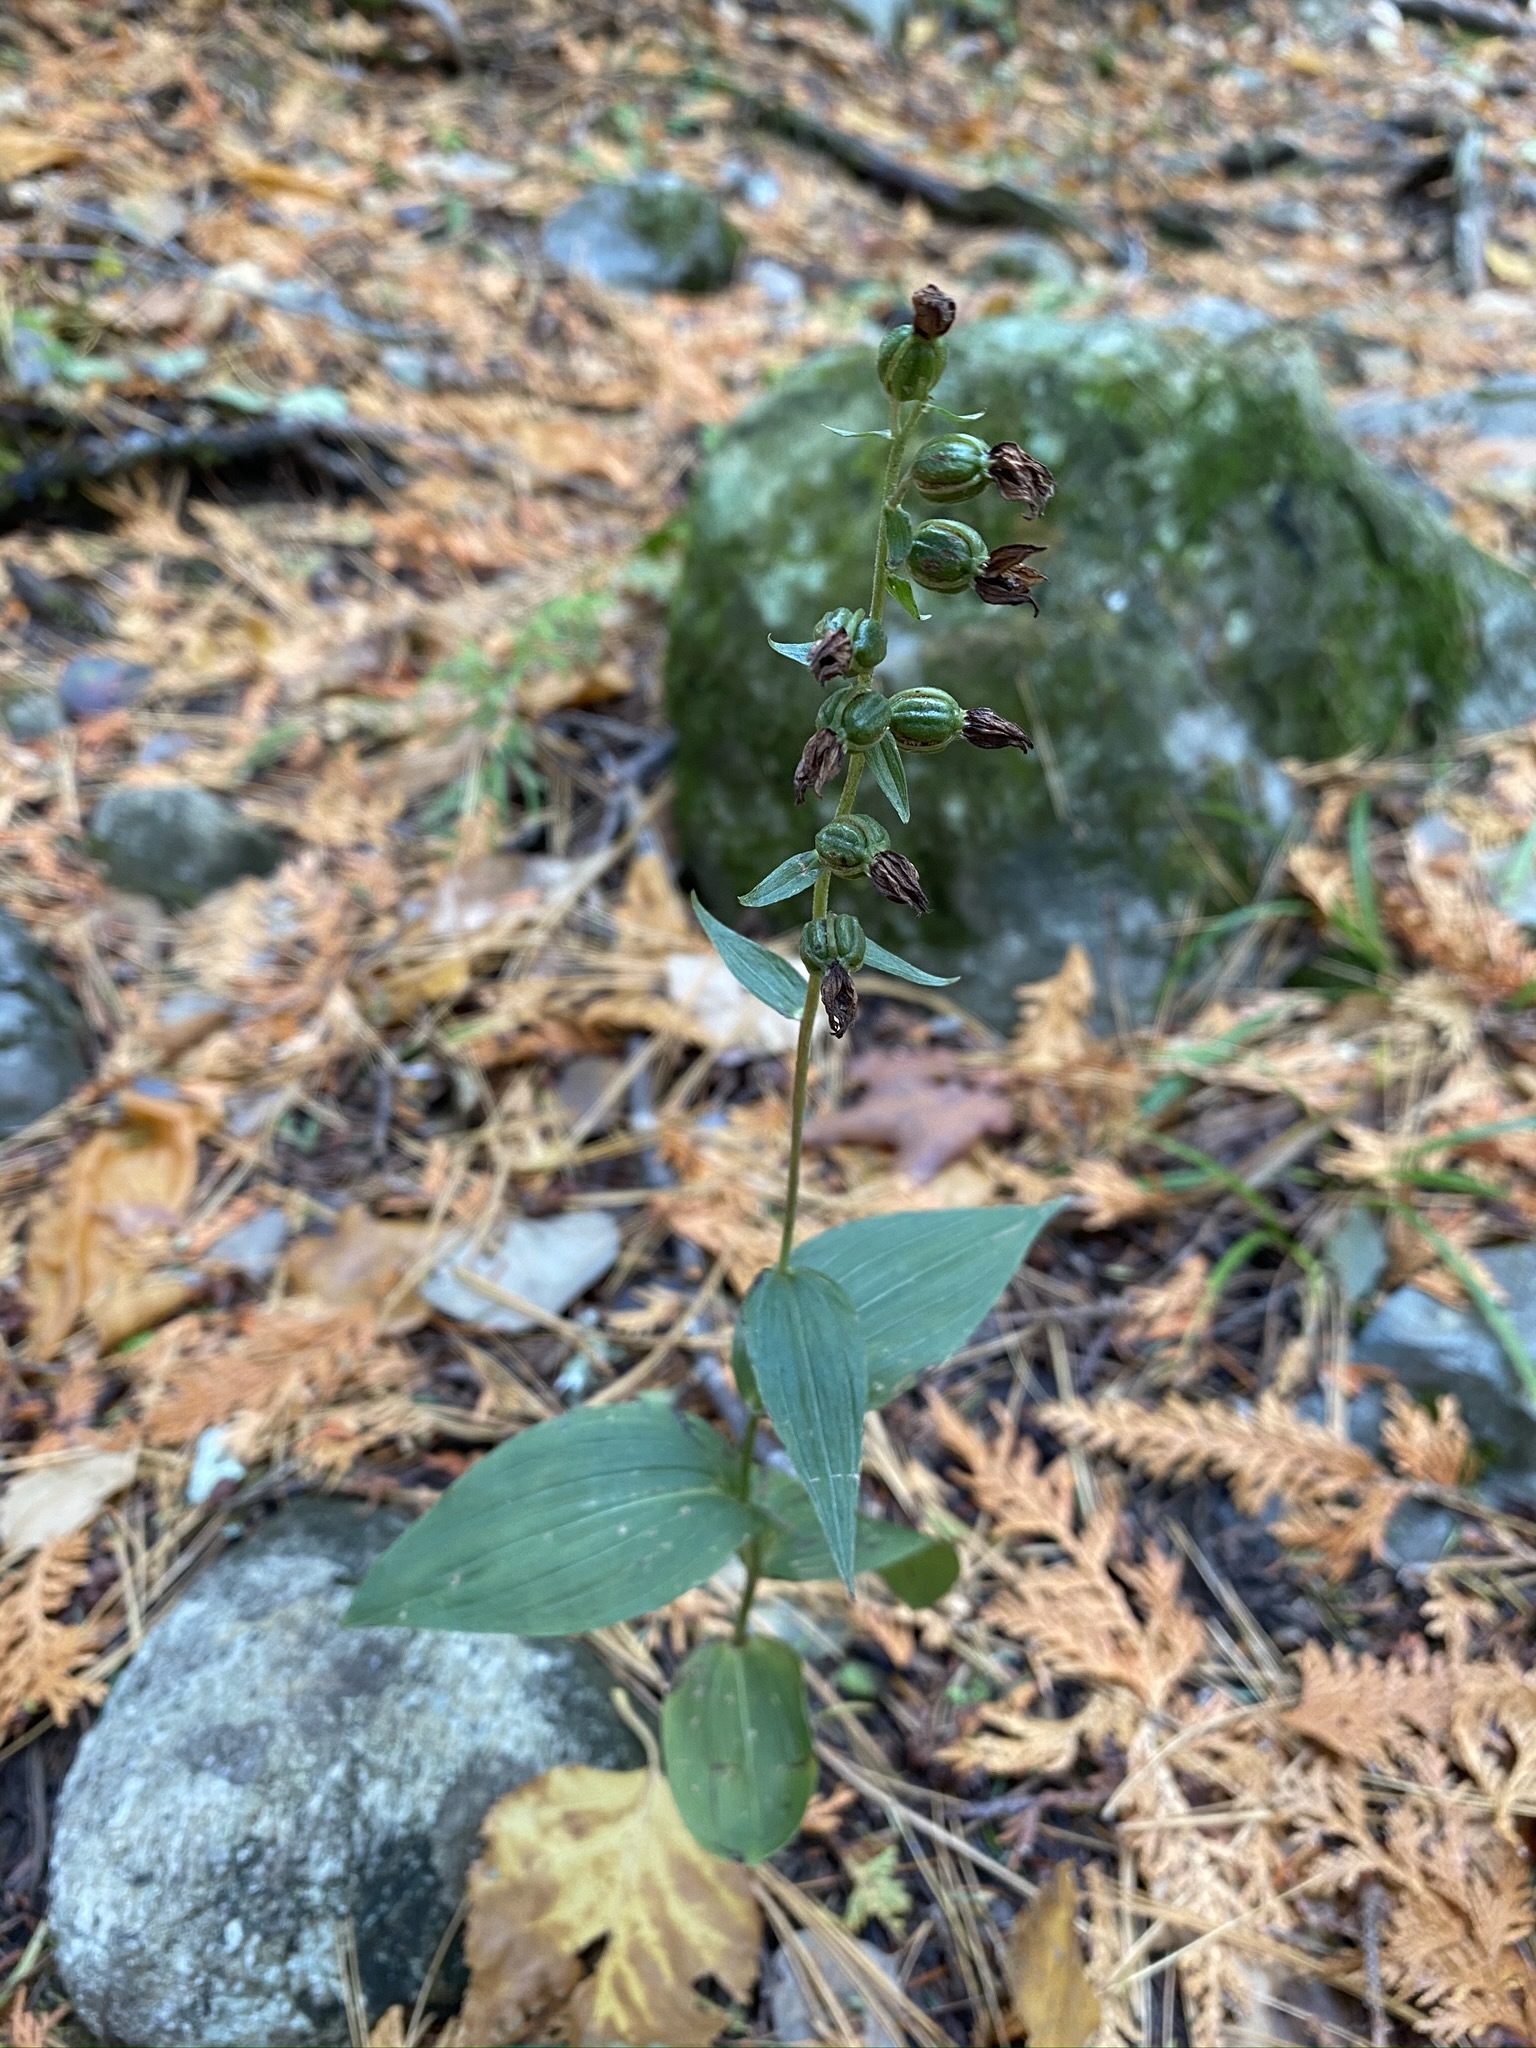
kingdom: Plantae
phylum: Tracheophyta
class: Liliopsida
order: Asparagales
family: Orchidaceae
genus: Epipactis
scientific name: Epipactis helleborine
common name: Broad-leaved helleborine
